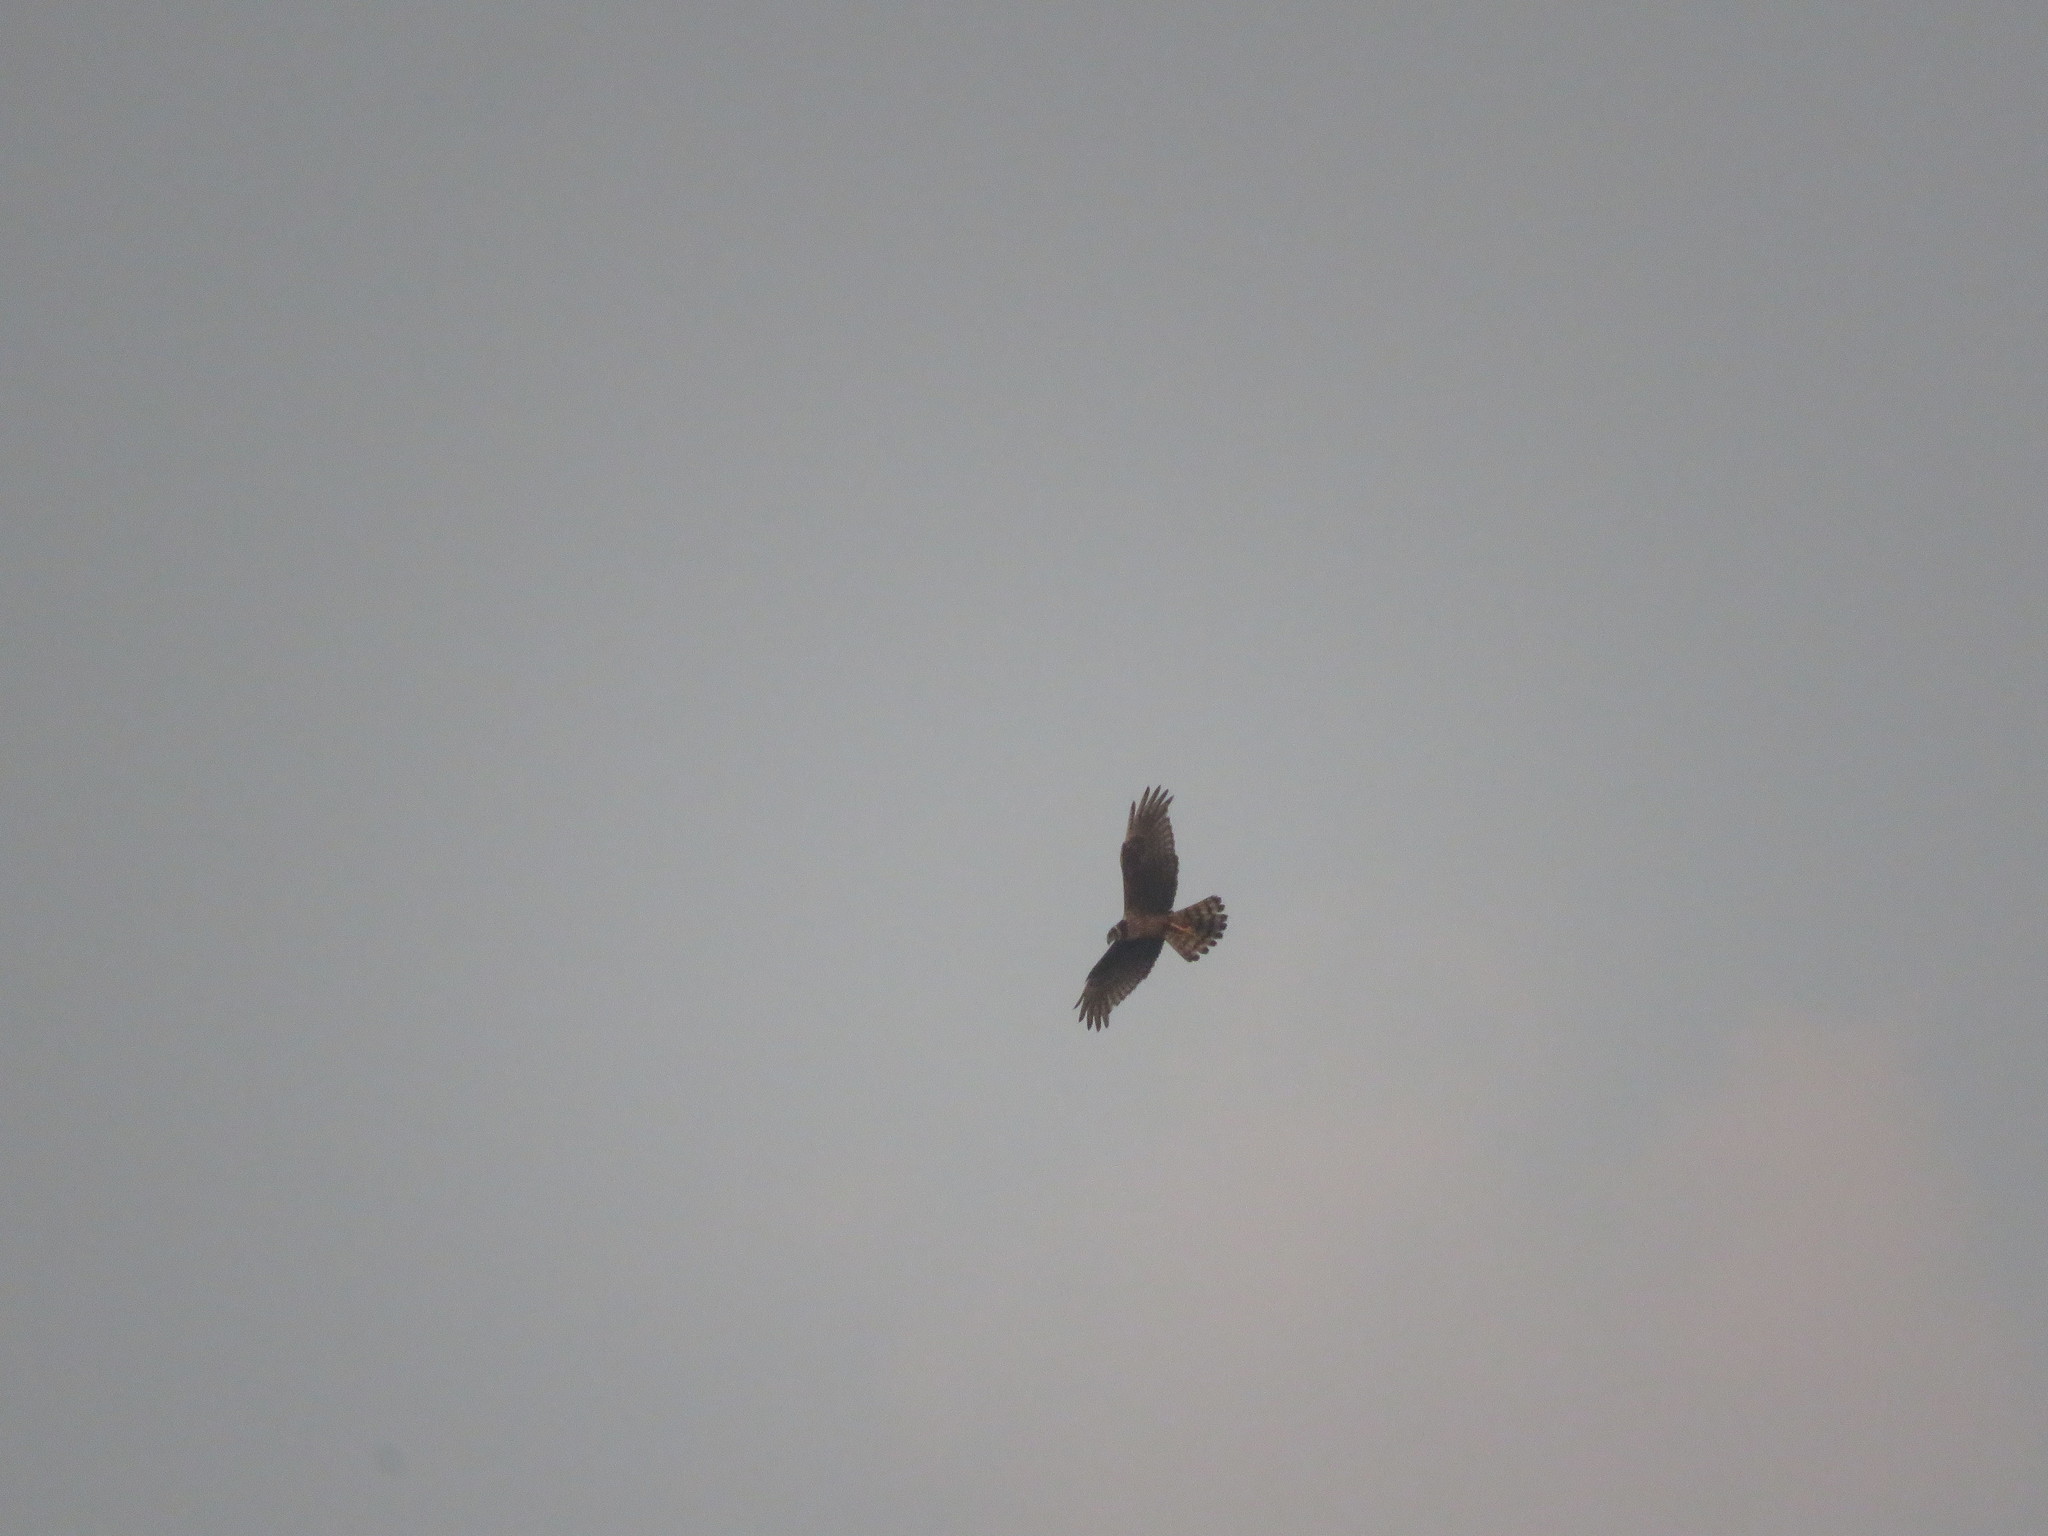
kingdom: Animalia
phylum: Chordata
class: Aves
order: Accipitriformes
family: Accipitridae
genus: Circus
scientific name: Circus buffoni
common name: Long-winged harrier
